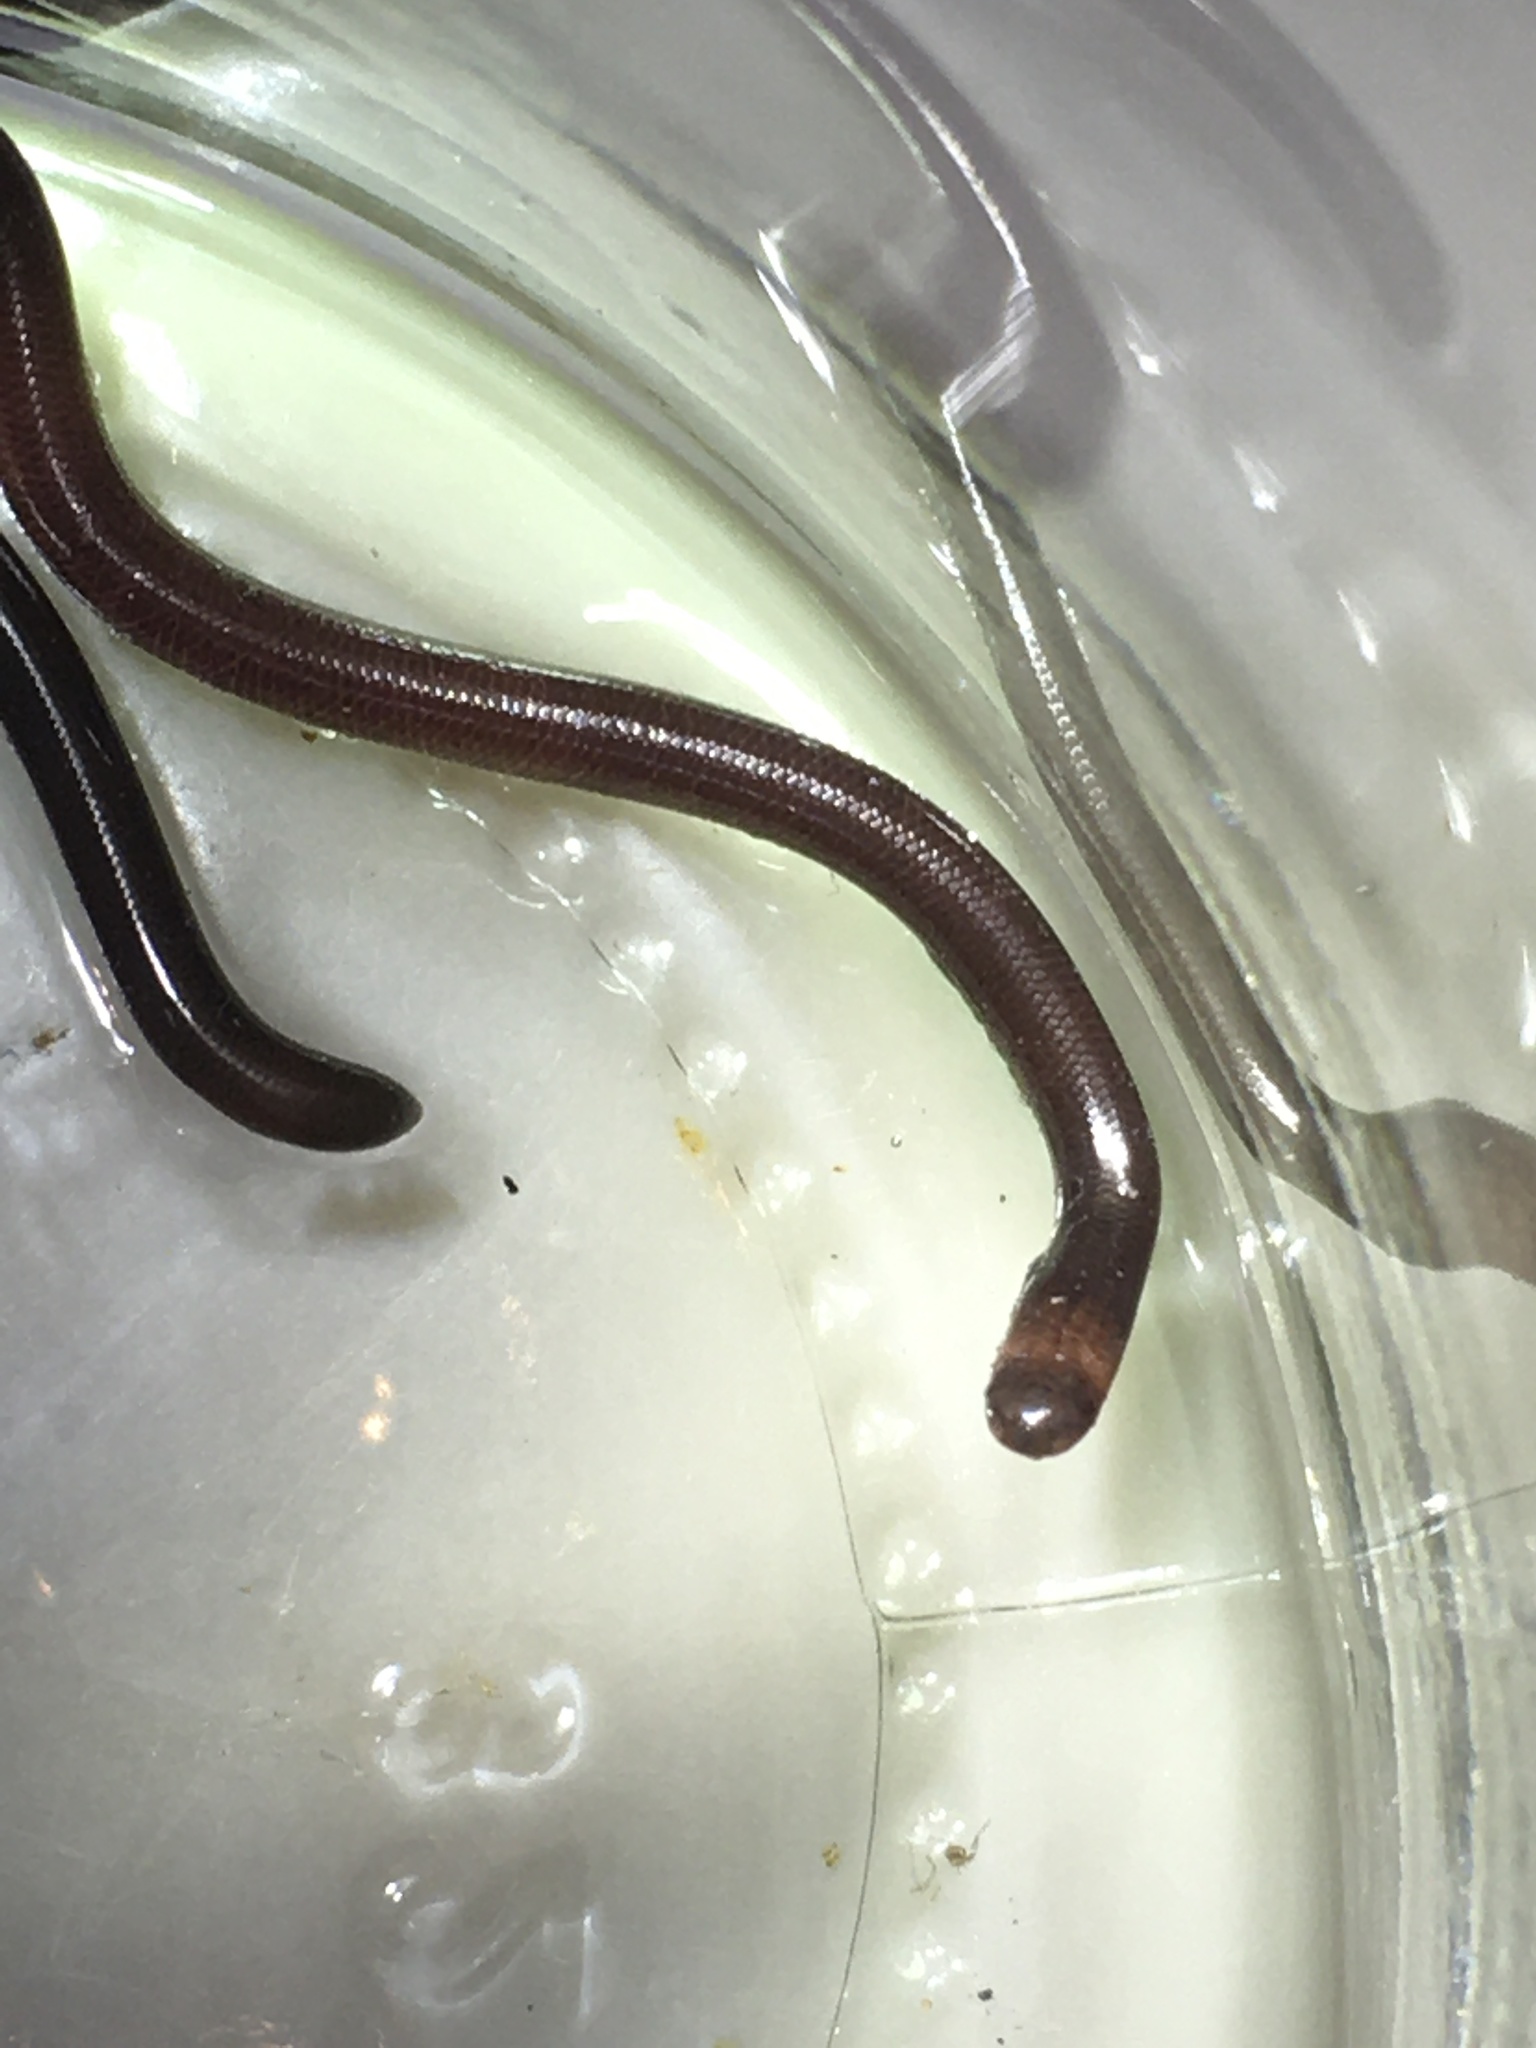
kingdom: Animalia
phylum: Chordata
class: Squamata
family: Anomalepididae
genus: Liotyphlops
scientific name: Liotyphlops ternetzii
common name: Ternetz's blind snake
